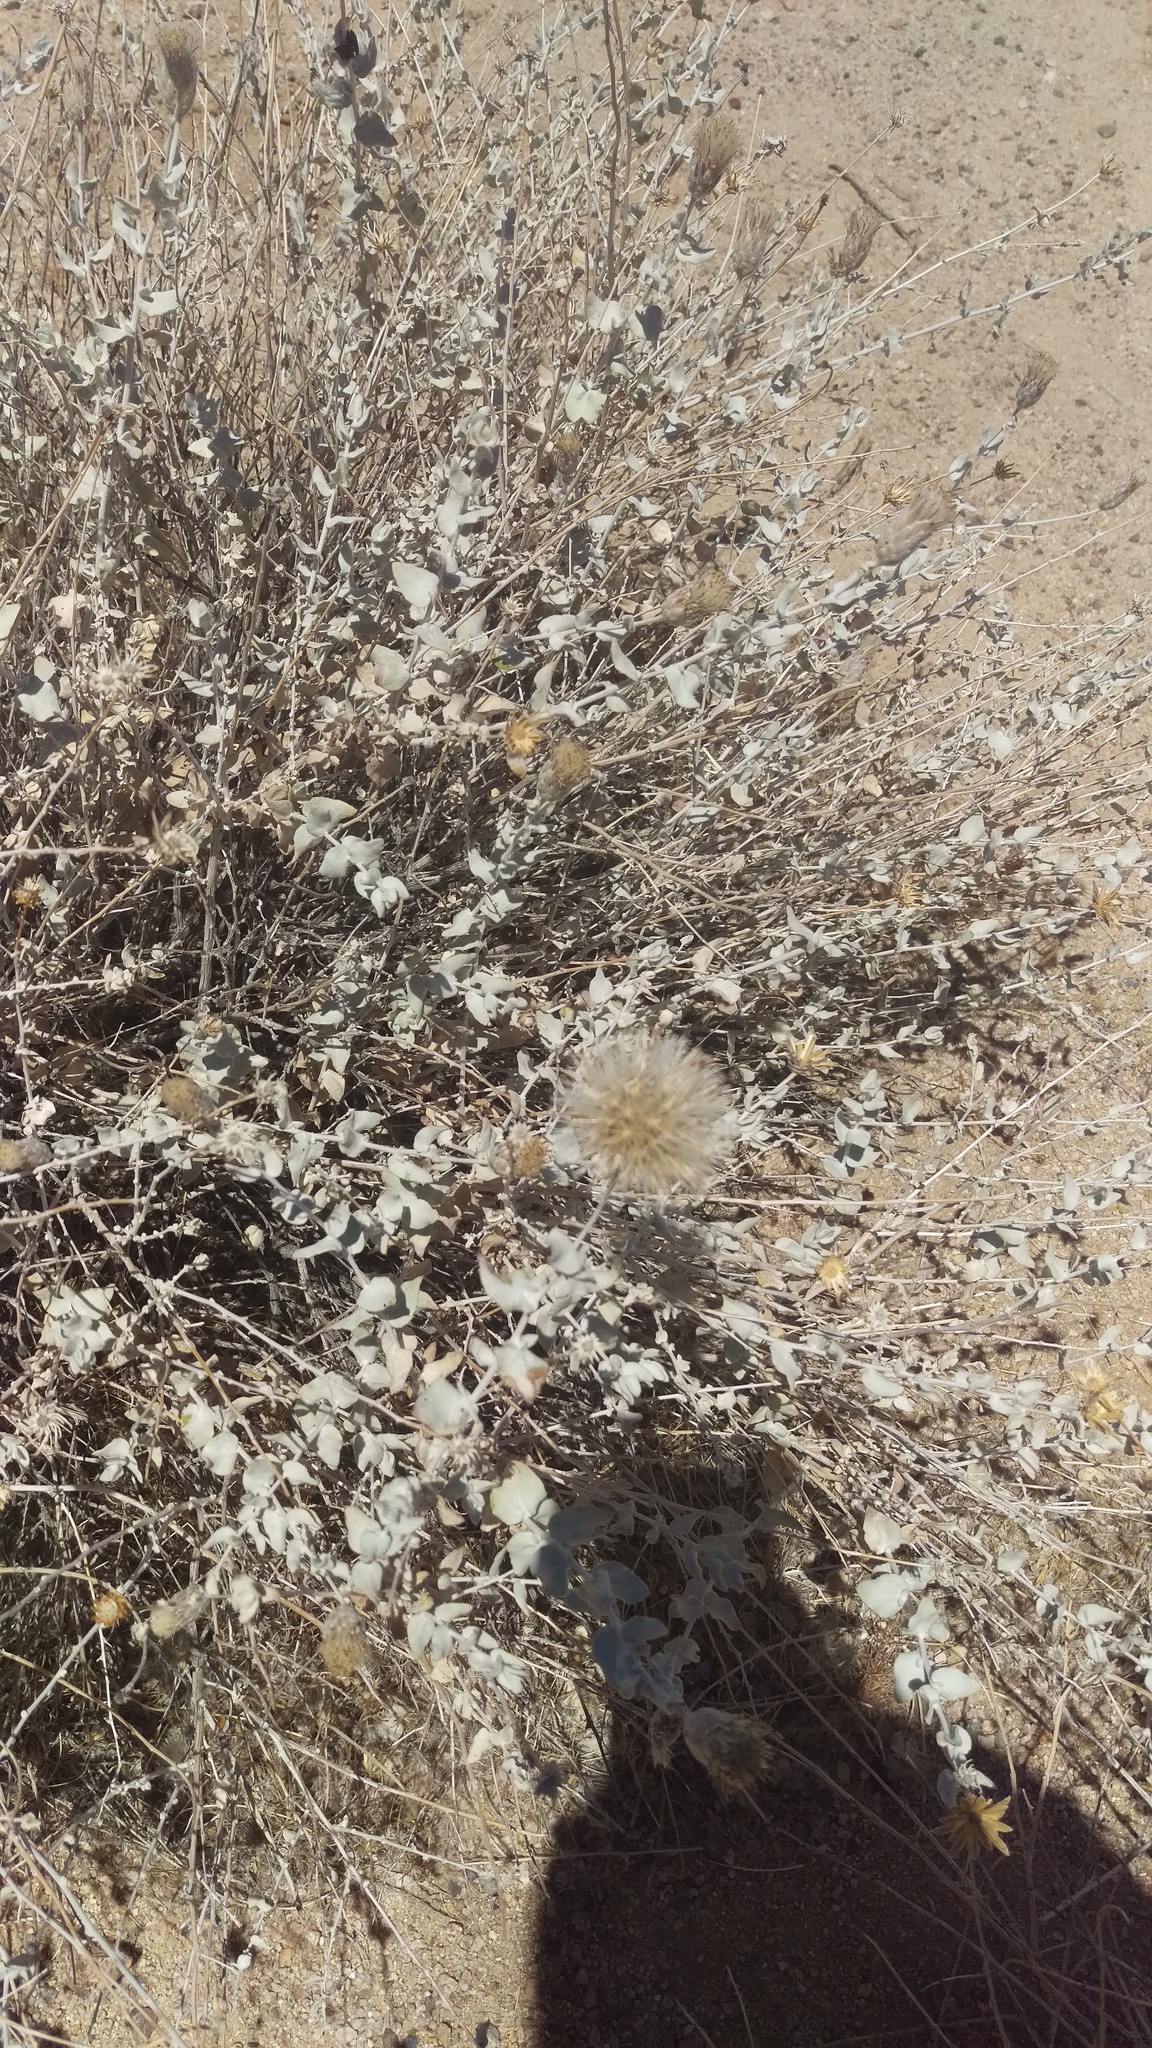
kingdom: Plantae
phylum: Tracheophyta
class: Magnoliopsida
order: Asterales
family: Asteraceae
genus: Brickellia
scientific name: Brickellia incana
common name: Woolly brickelbush
